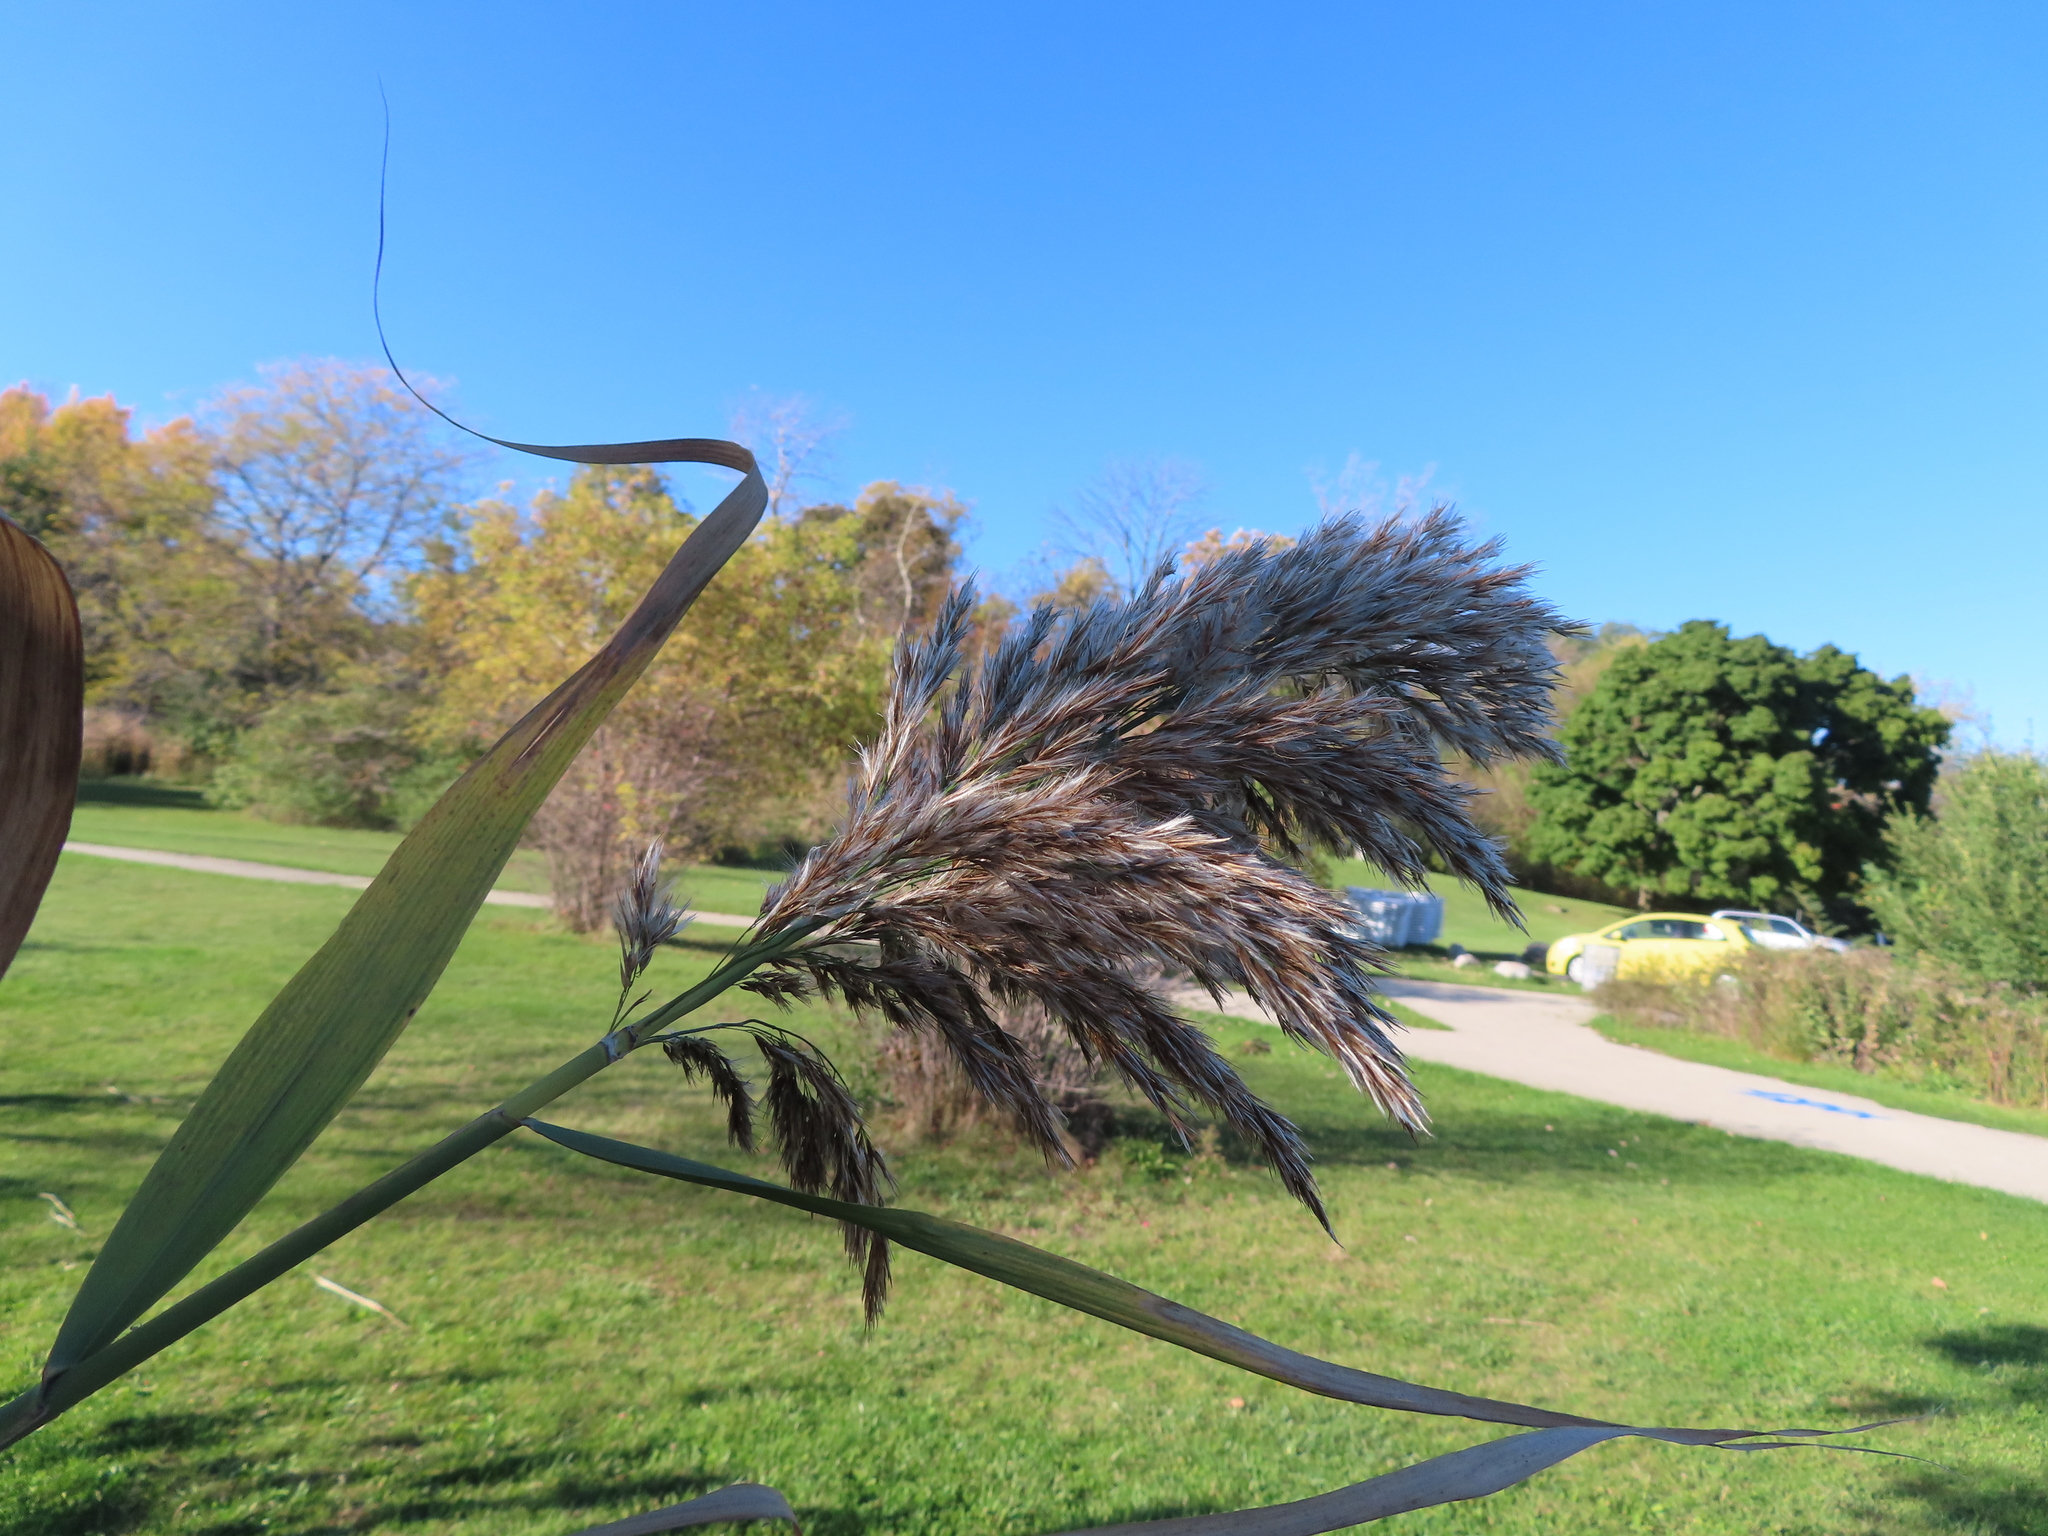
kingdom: Plantae
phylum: Tracheophyta
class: Liliopsida
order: Poales
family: Poaceae
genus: Phragmites
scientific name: Phragmites australis
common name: Common reed
